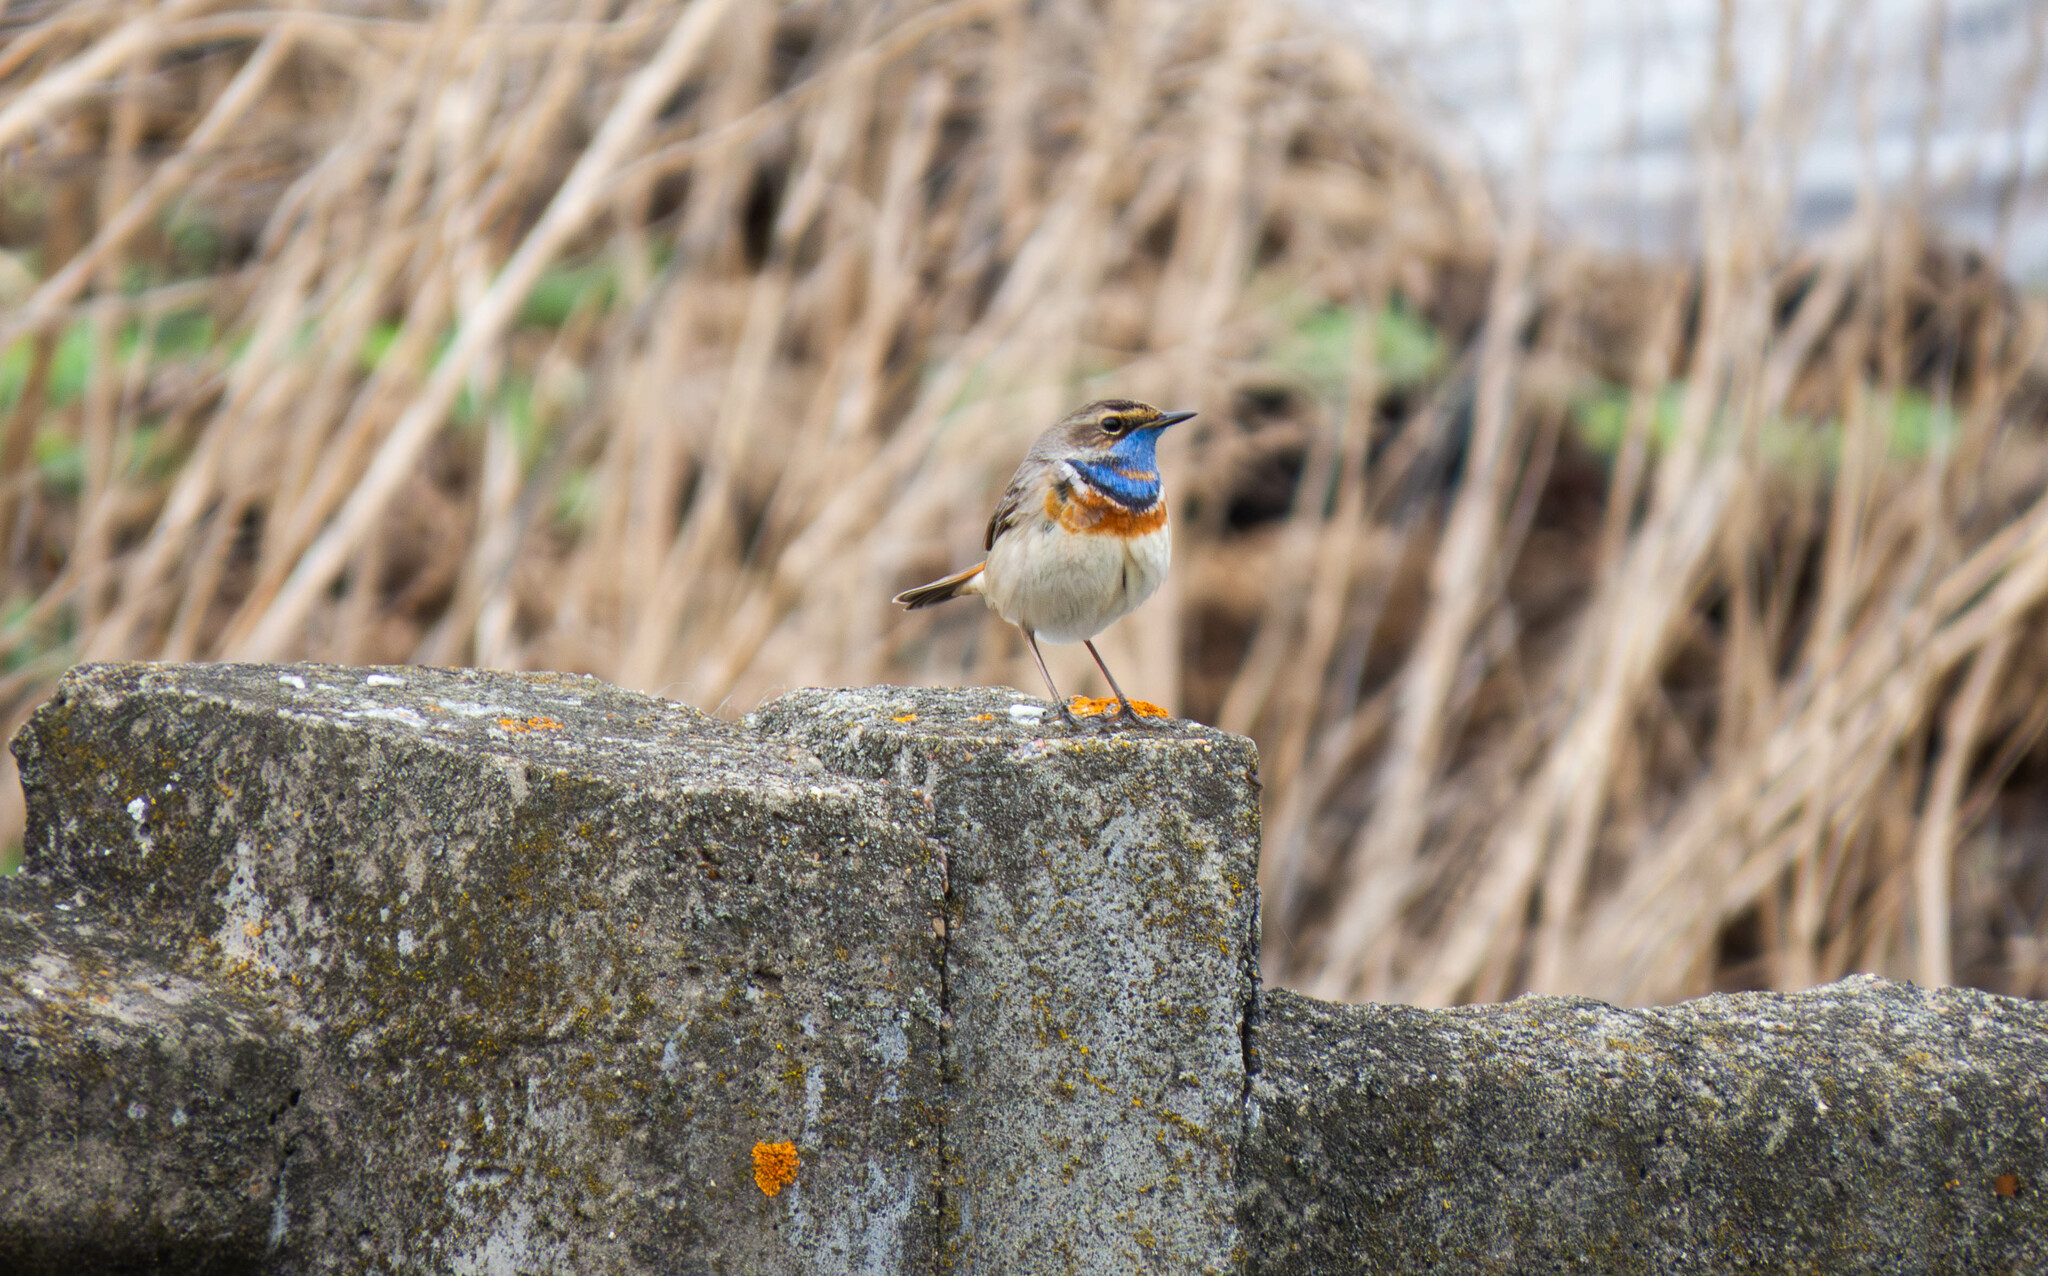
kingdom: Animalia
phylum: Chordata
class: Aves
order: Passeriformes
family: Muscicapidae
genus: Luscinia
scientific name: Luscinia svecica
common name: Bluethroat
